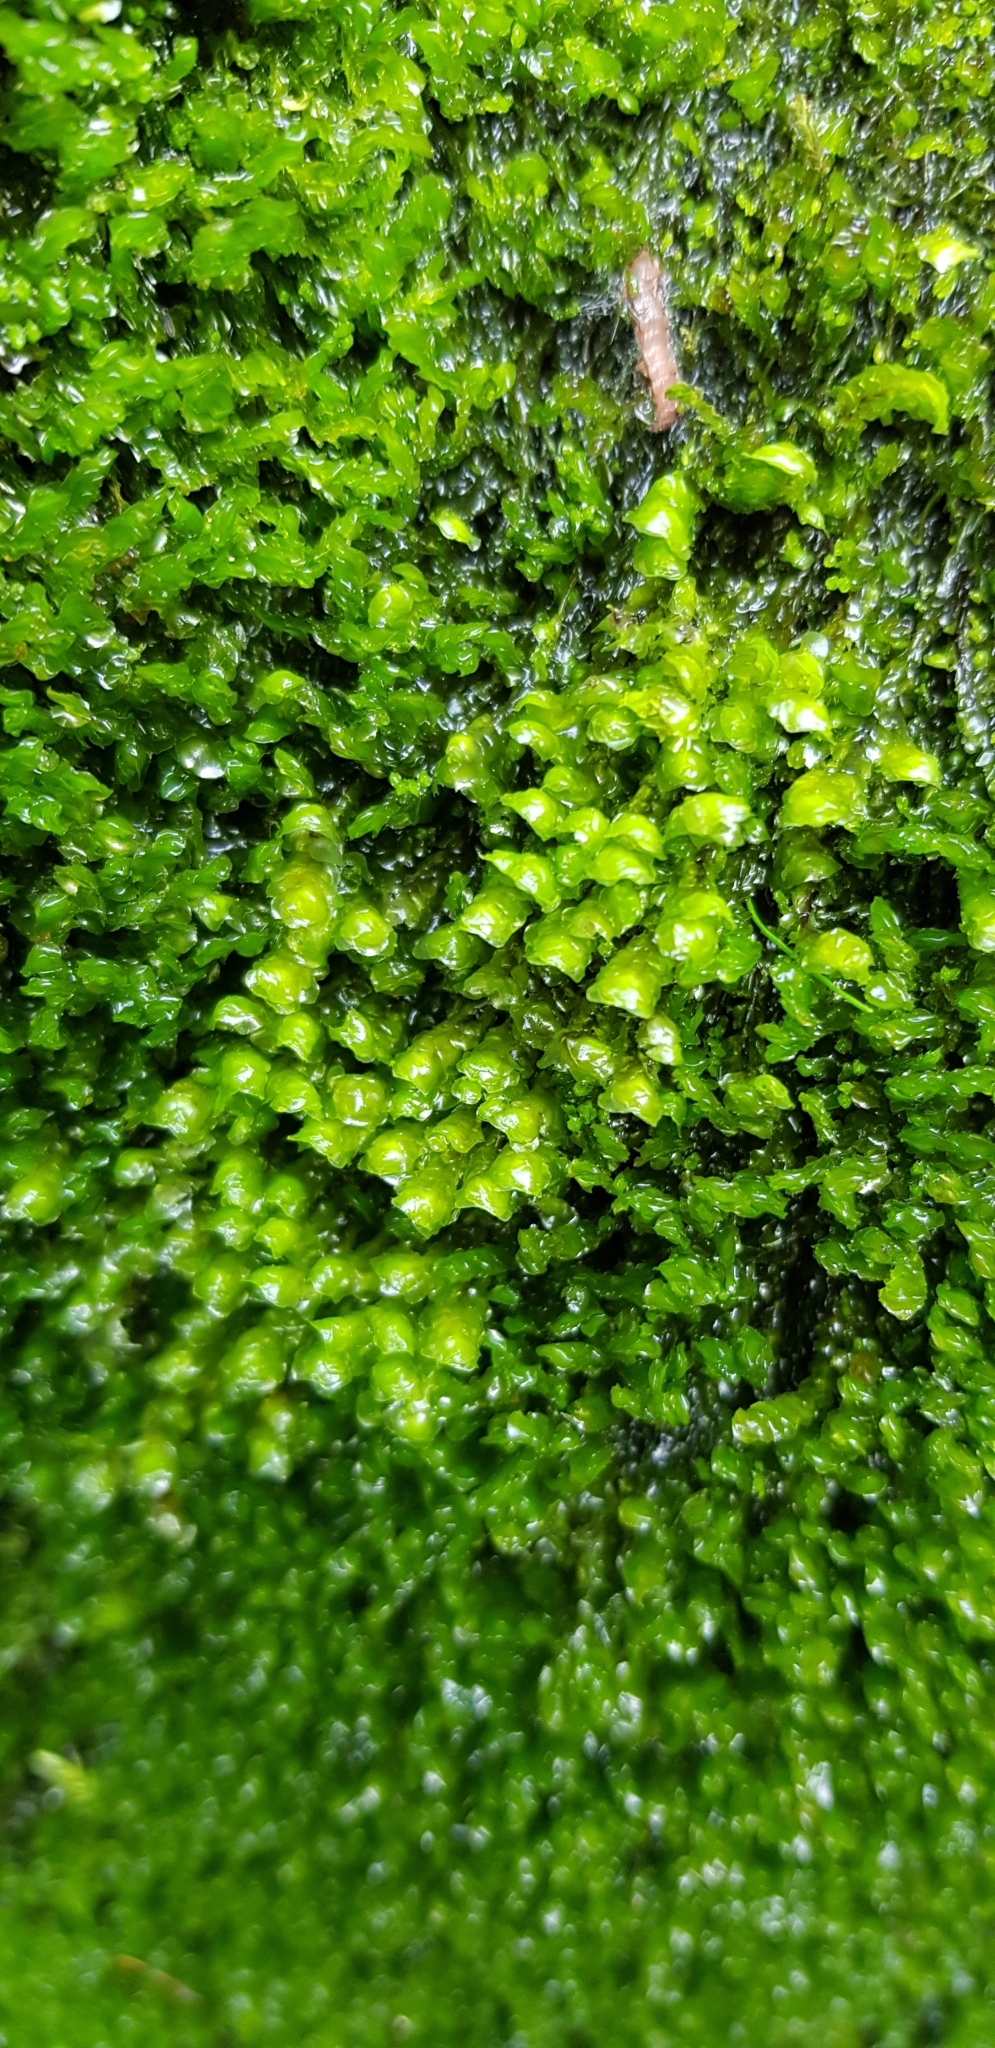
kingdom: Plantae
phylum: Marchantiophyta
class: Jungermanniopsida
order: Jungermanniales
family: Scapaniaceae
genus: Scapania
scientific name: Scapania undulata
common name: Water earwort
